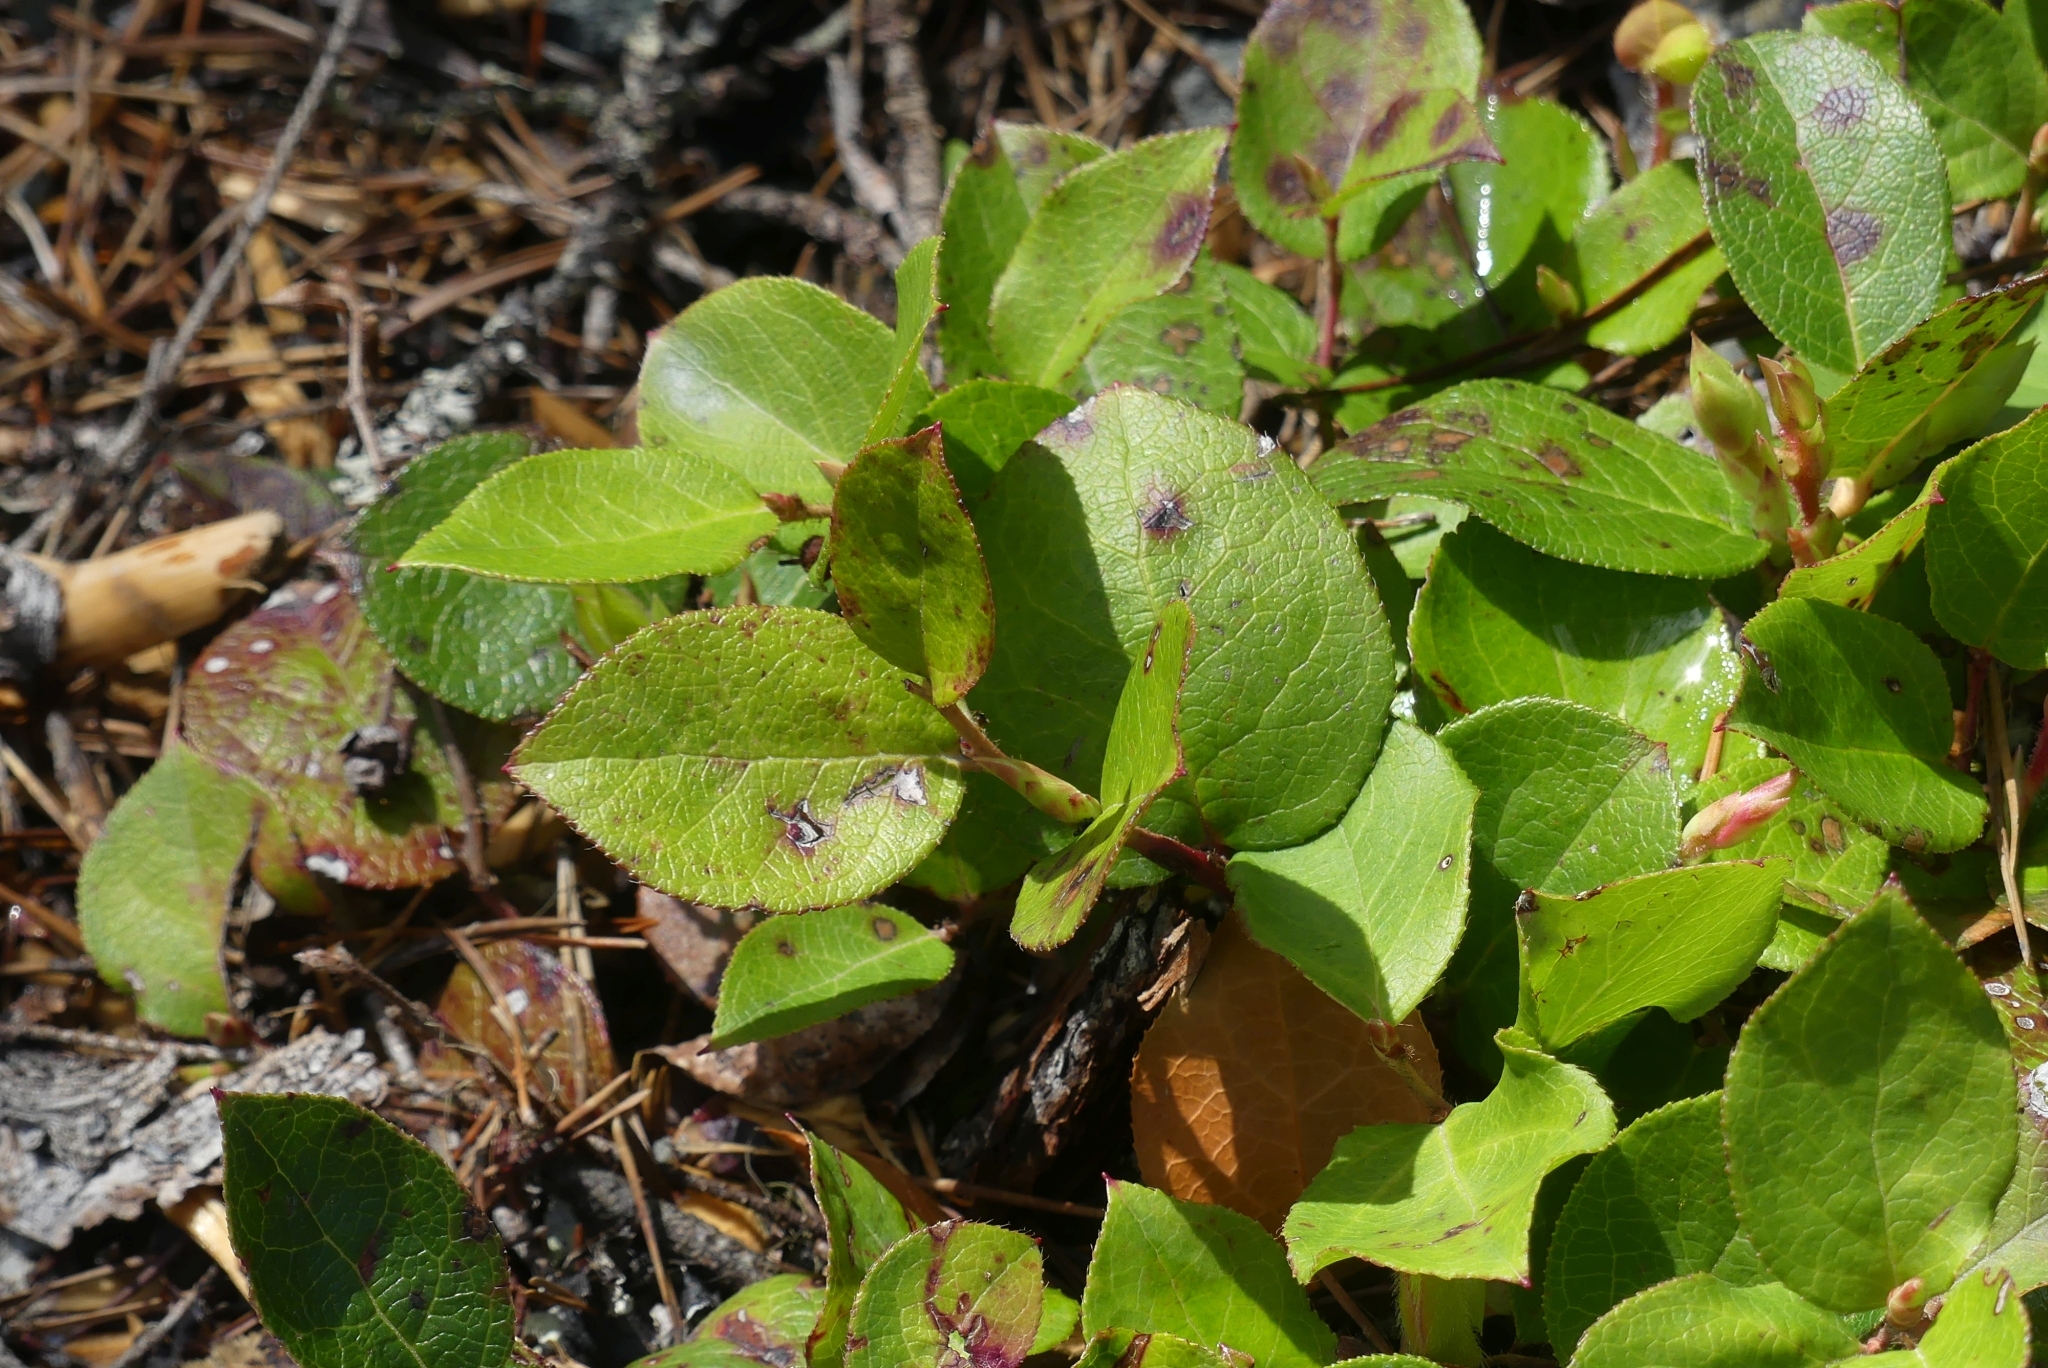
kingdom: Plantae
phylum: Tracheophyta
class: Magnoliopsida
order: Ericales
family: Ericaceae
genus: Gaultheria
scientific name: Gaultheria shallon
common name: Shallon
